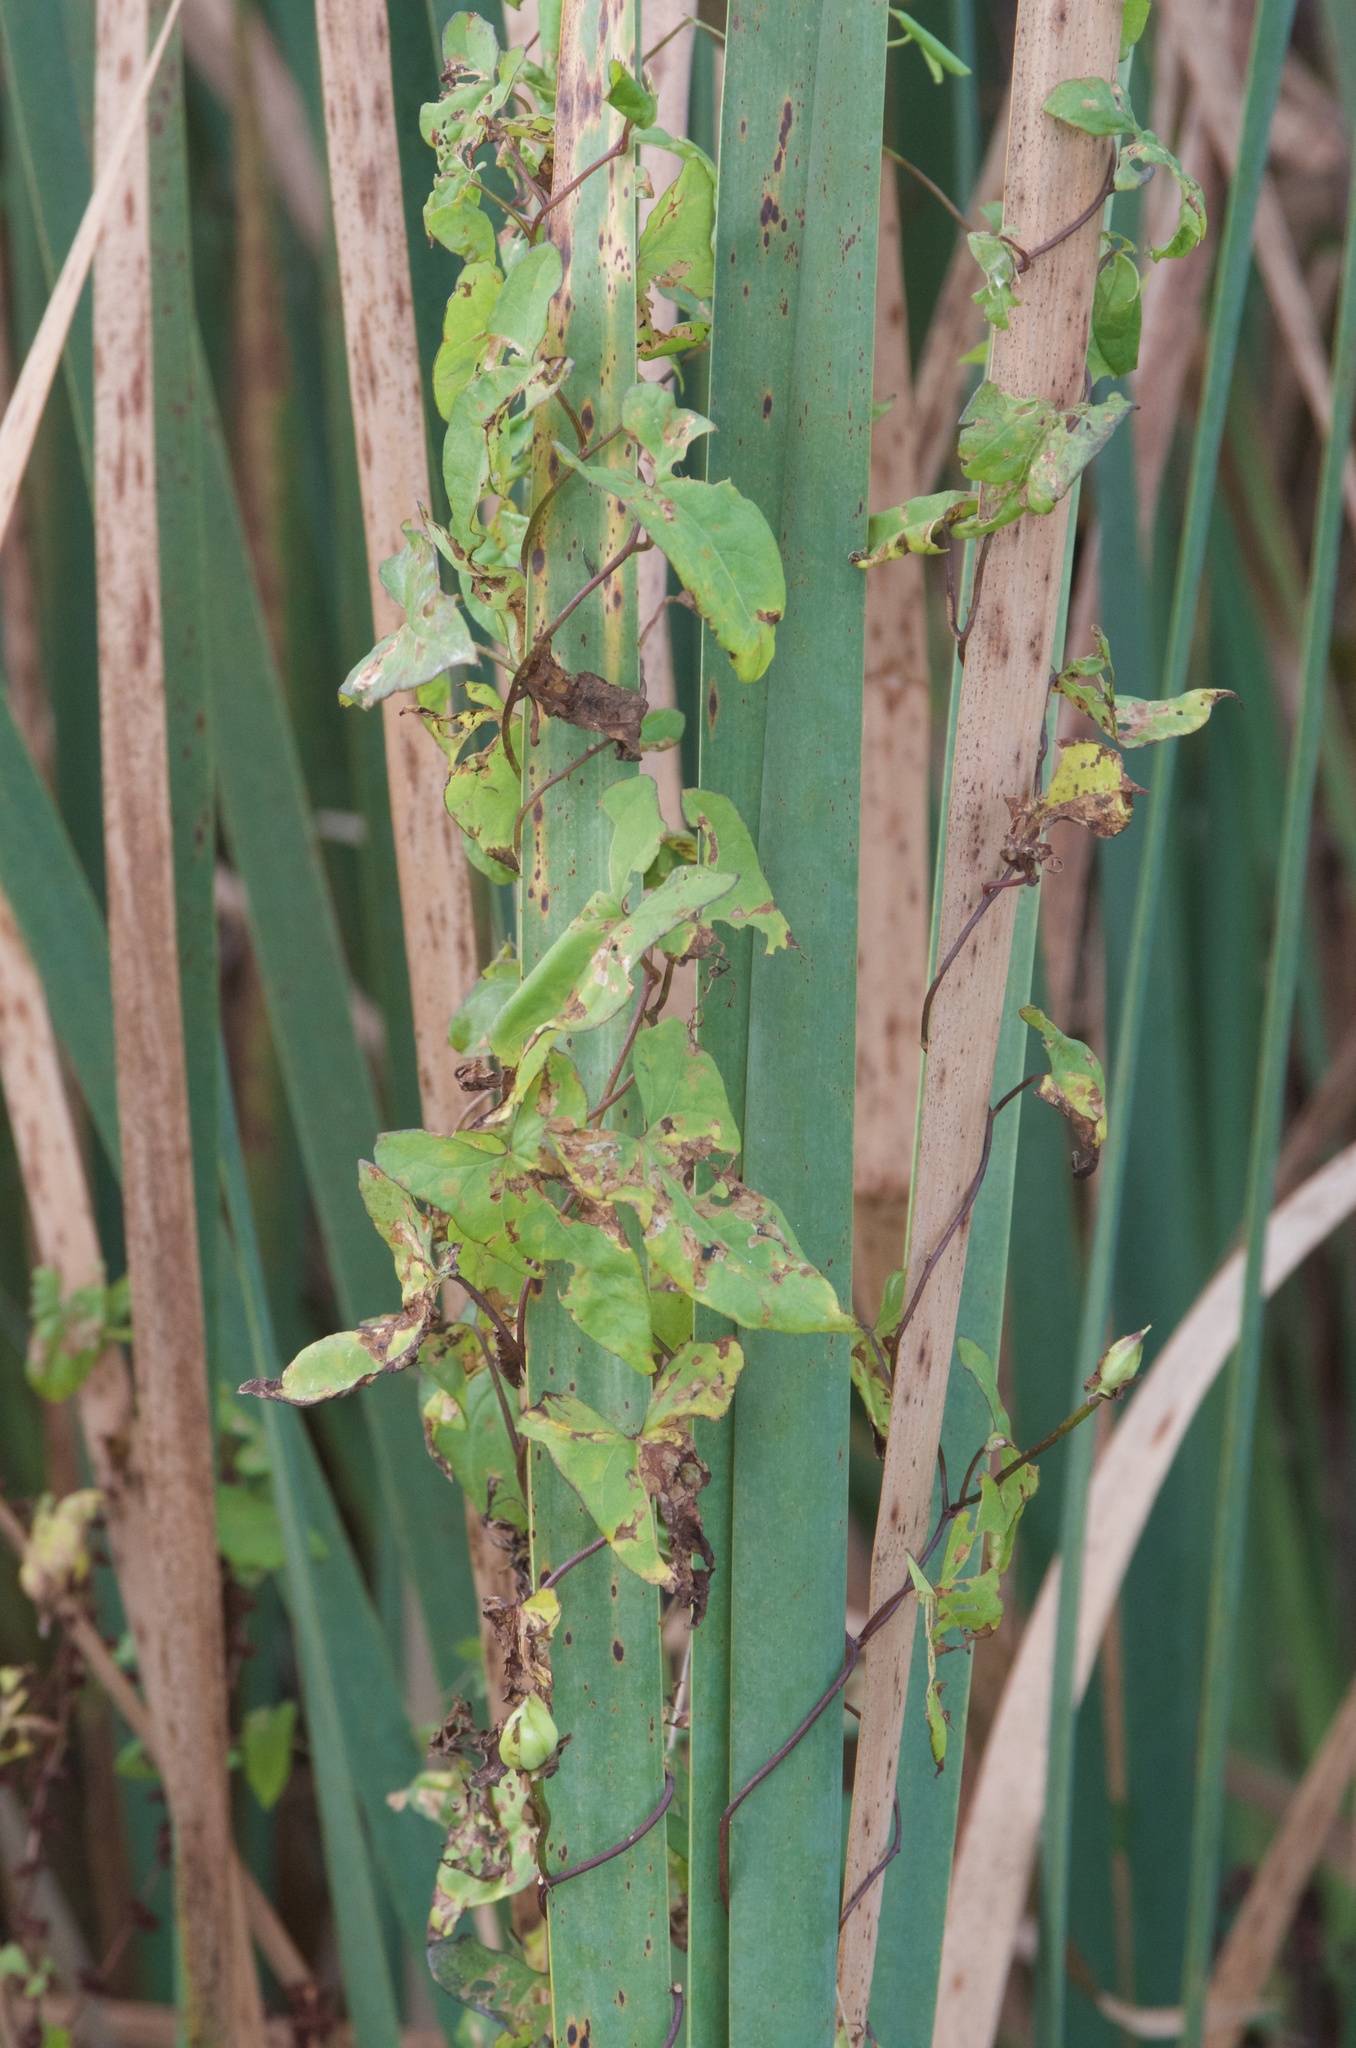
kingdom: Plantae
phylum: Tracheophyta
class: Magnoliopsida
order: Solanales
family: Convolvulaceae
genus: Calystegia
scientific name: Calystegia sepium
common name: Hedge bindweed
